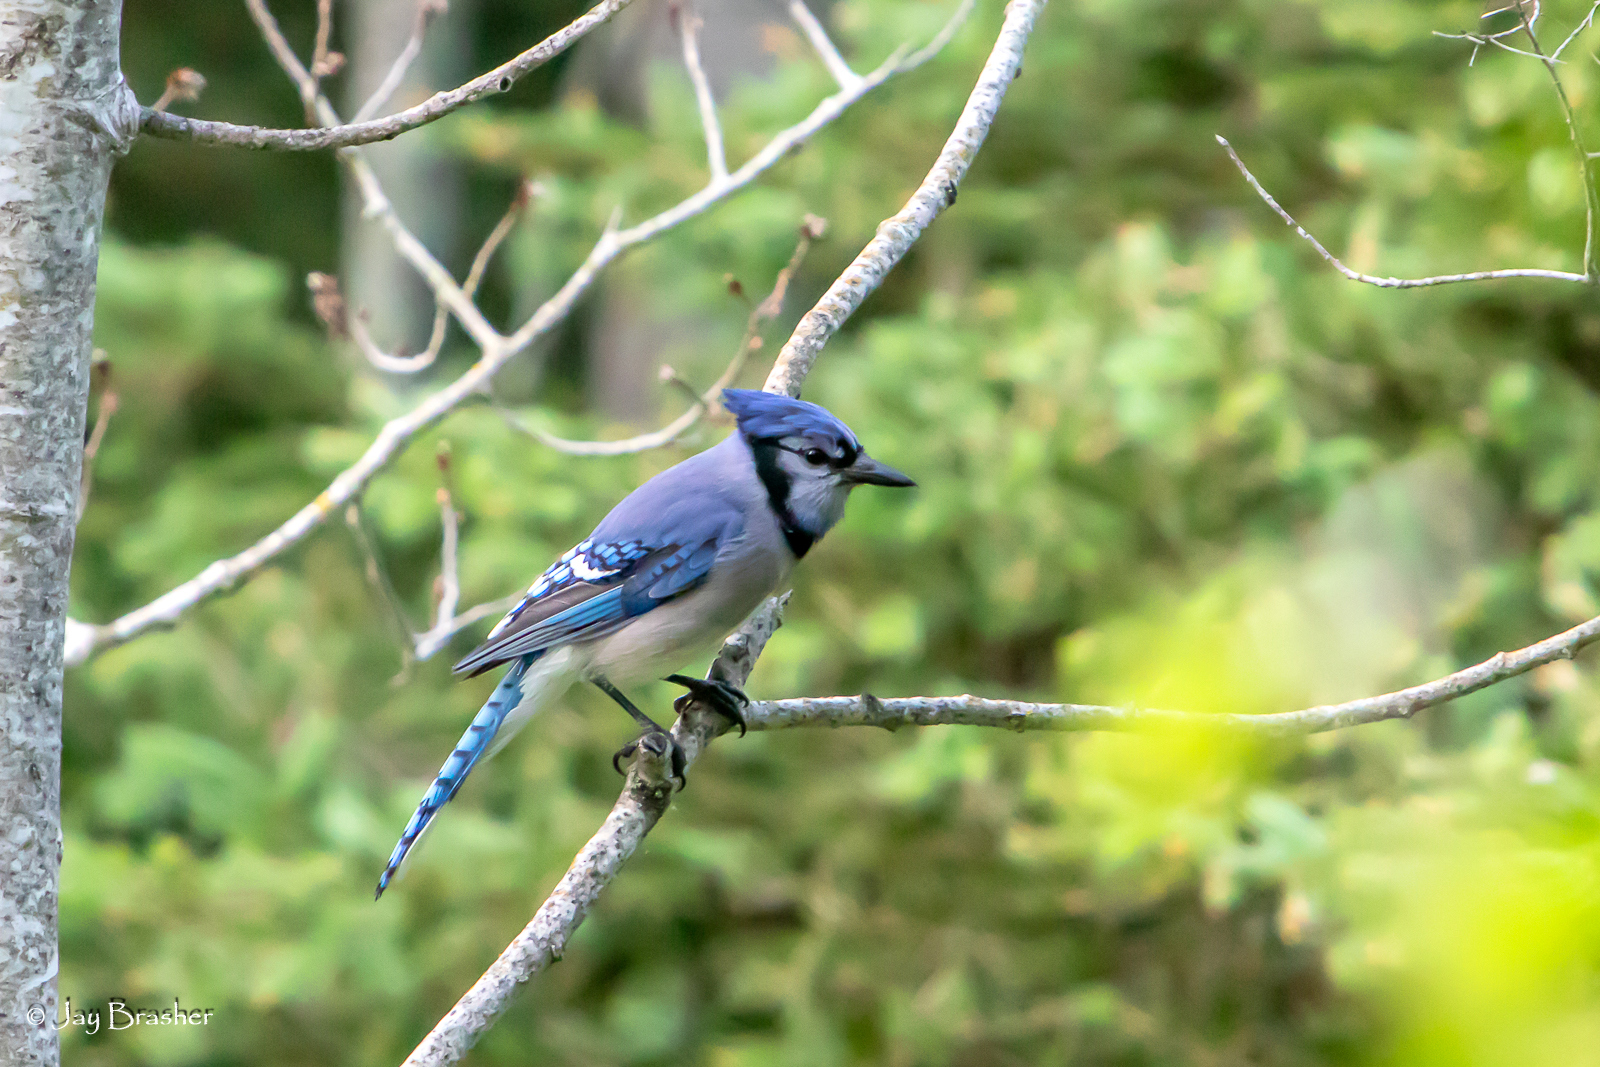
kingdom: Animalia
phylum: Chordata
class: Aves
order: Passeriformes
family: Corvidae
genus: Cyanocitta
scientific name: Cyanocitta cristata
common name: Blue jay
